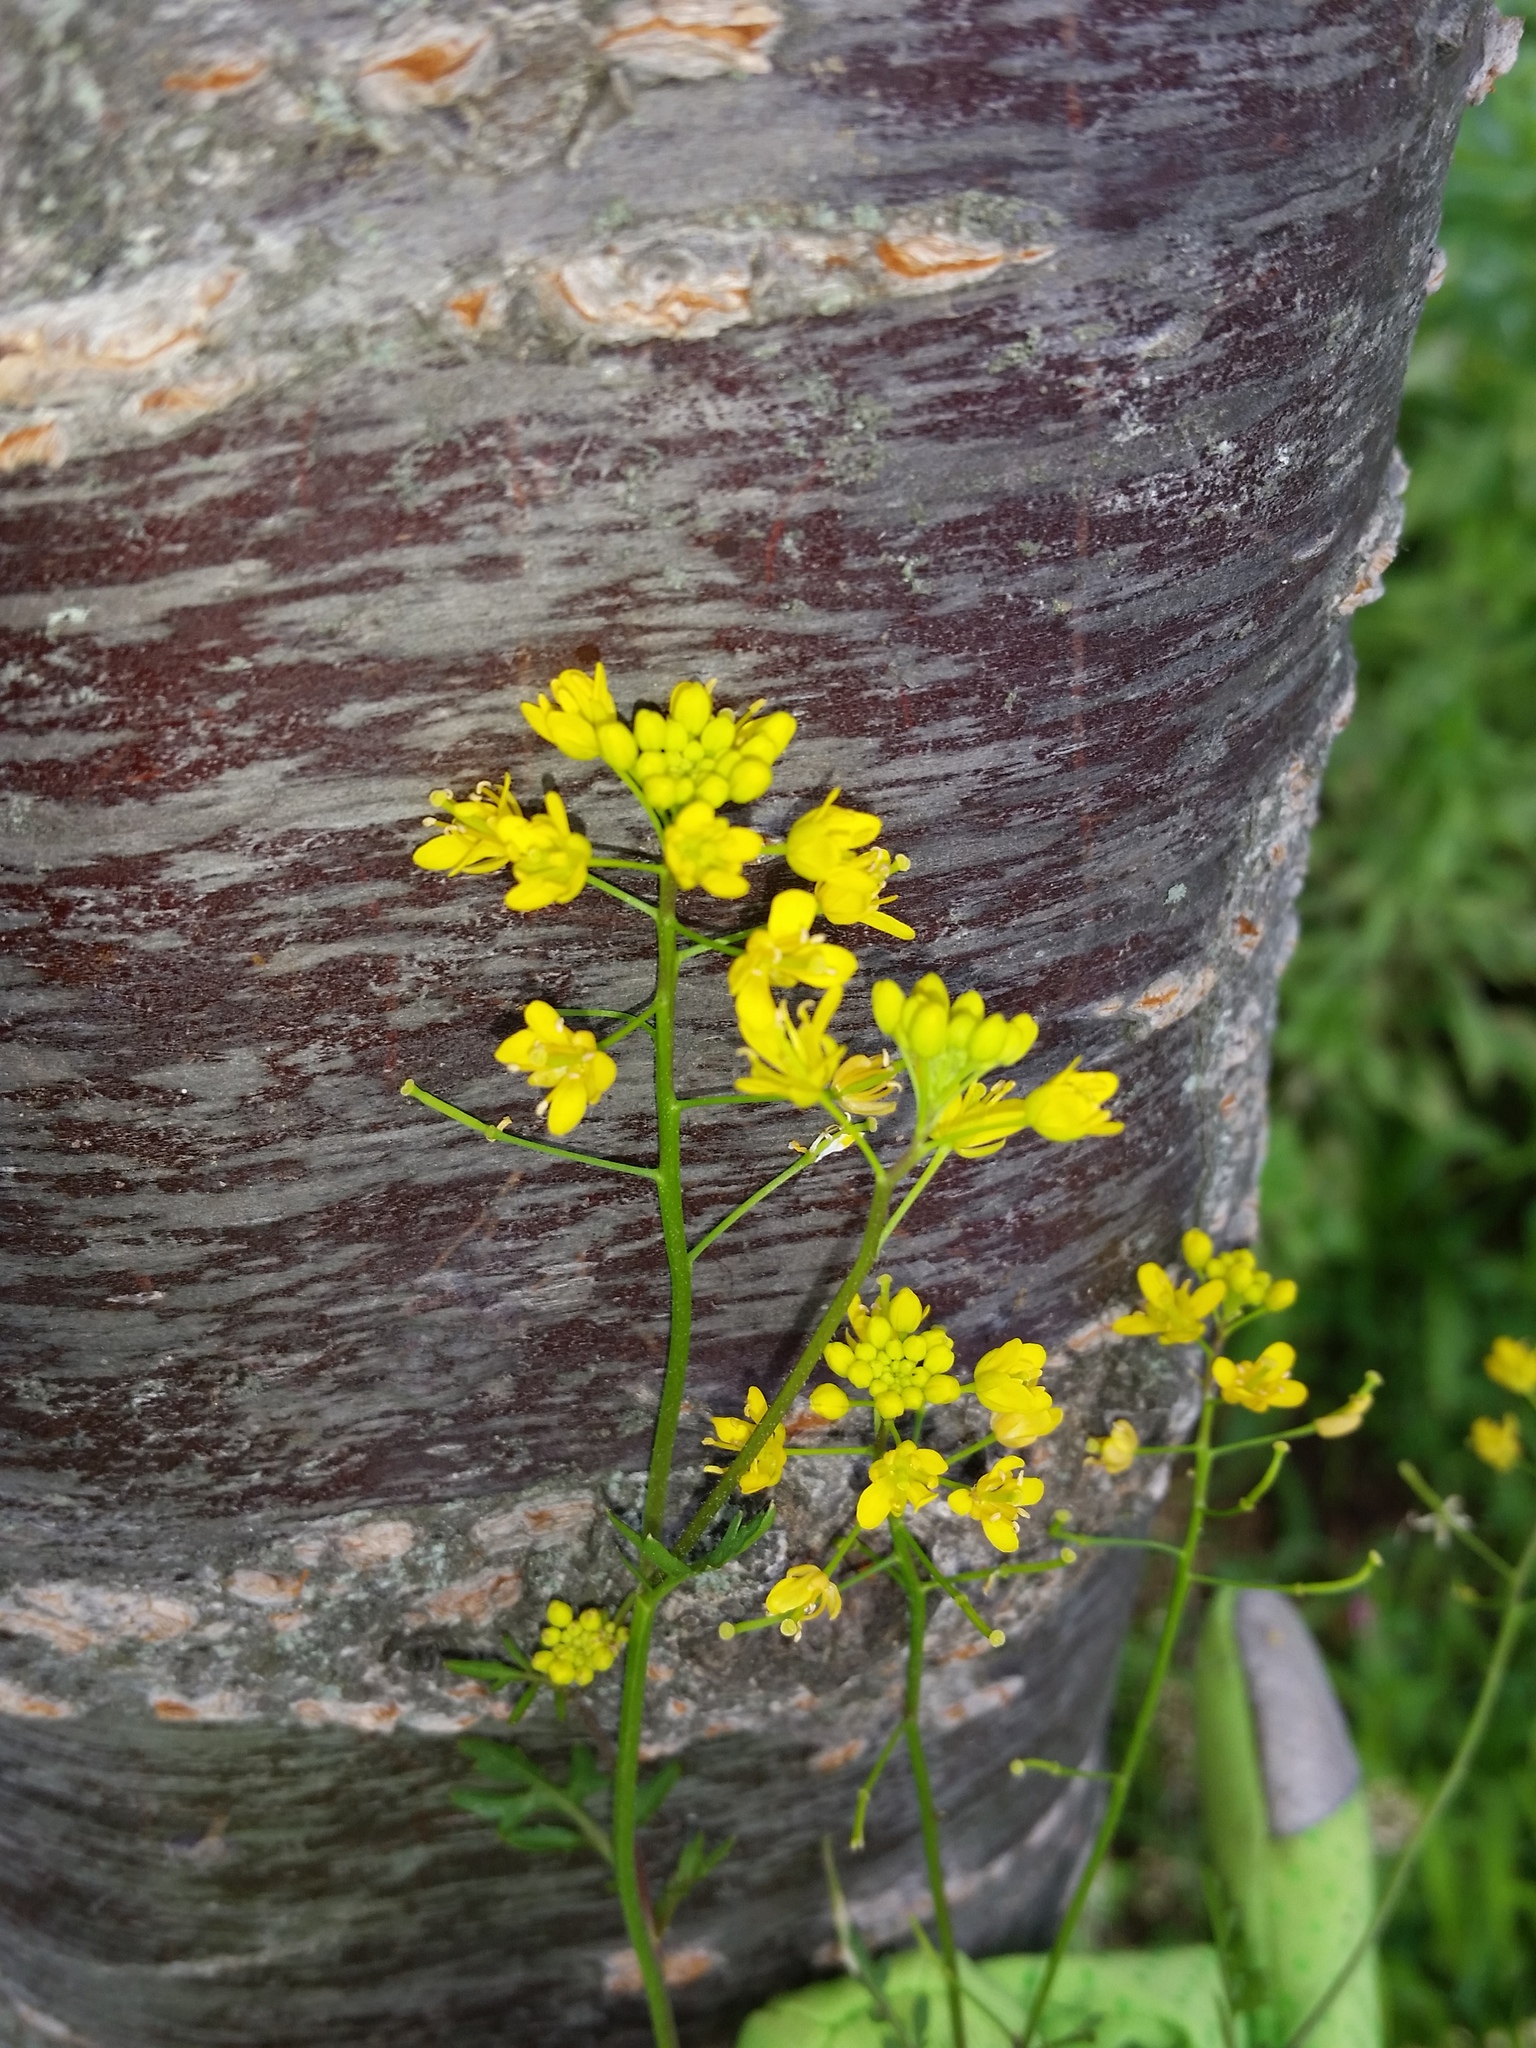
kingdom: Plantae
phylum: Tracheophyta
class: Magnoliopsida
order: Brassicales
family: Brassicaceae
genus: Rorippa
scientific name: Rorippa sylvestris
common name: Creeping yellowcress
